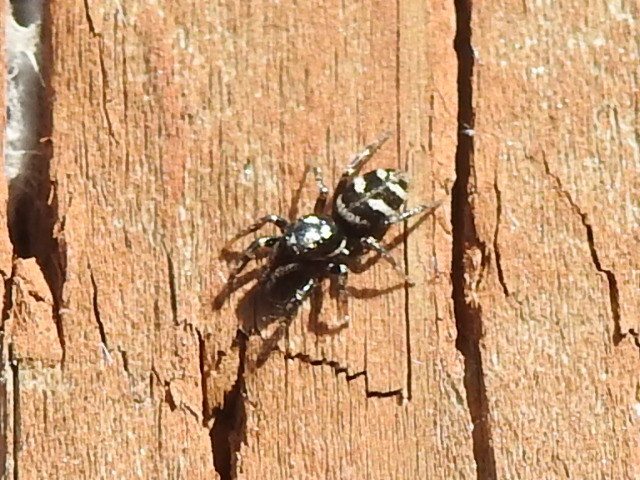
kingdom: Animalia
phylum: Arthropoda
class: Arachnida
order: Araneae
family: Salticidae
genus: Salticus
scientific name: Salticus scenicus
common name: Zebra jumper
